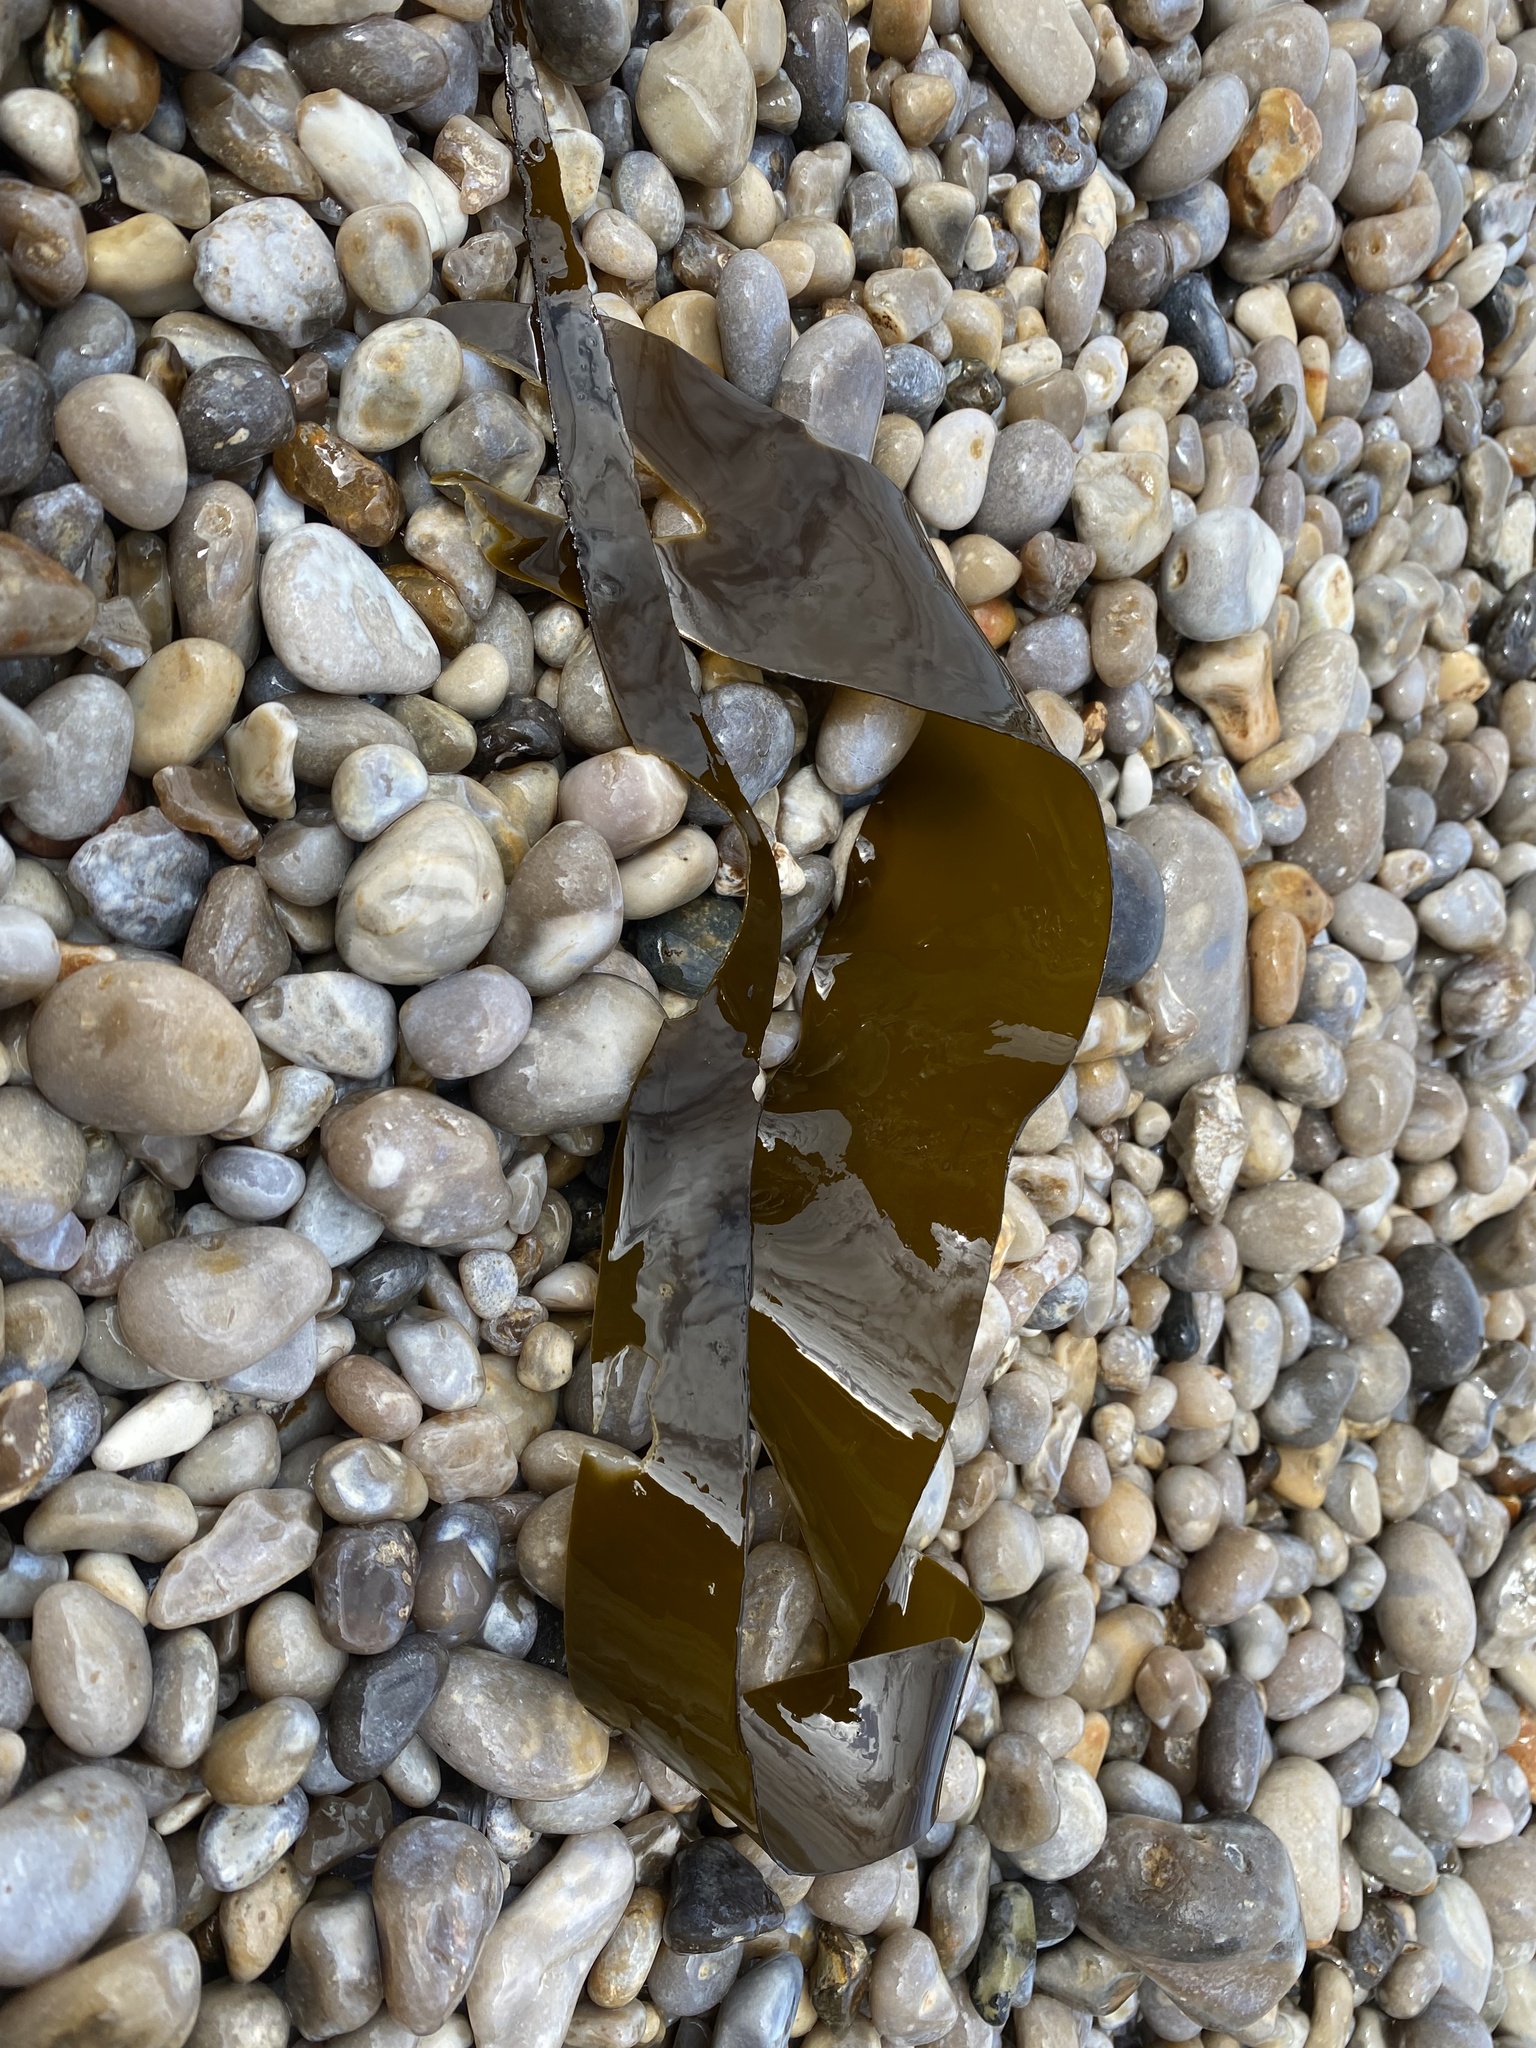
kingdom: Chromista
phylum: Ochrophyta
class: Phaeophyceae
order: Laminariales
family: Laminariaceae
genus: Laminaria
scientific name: Laminaria digitata
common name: Oarweed
